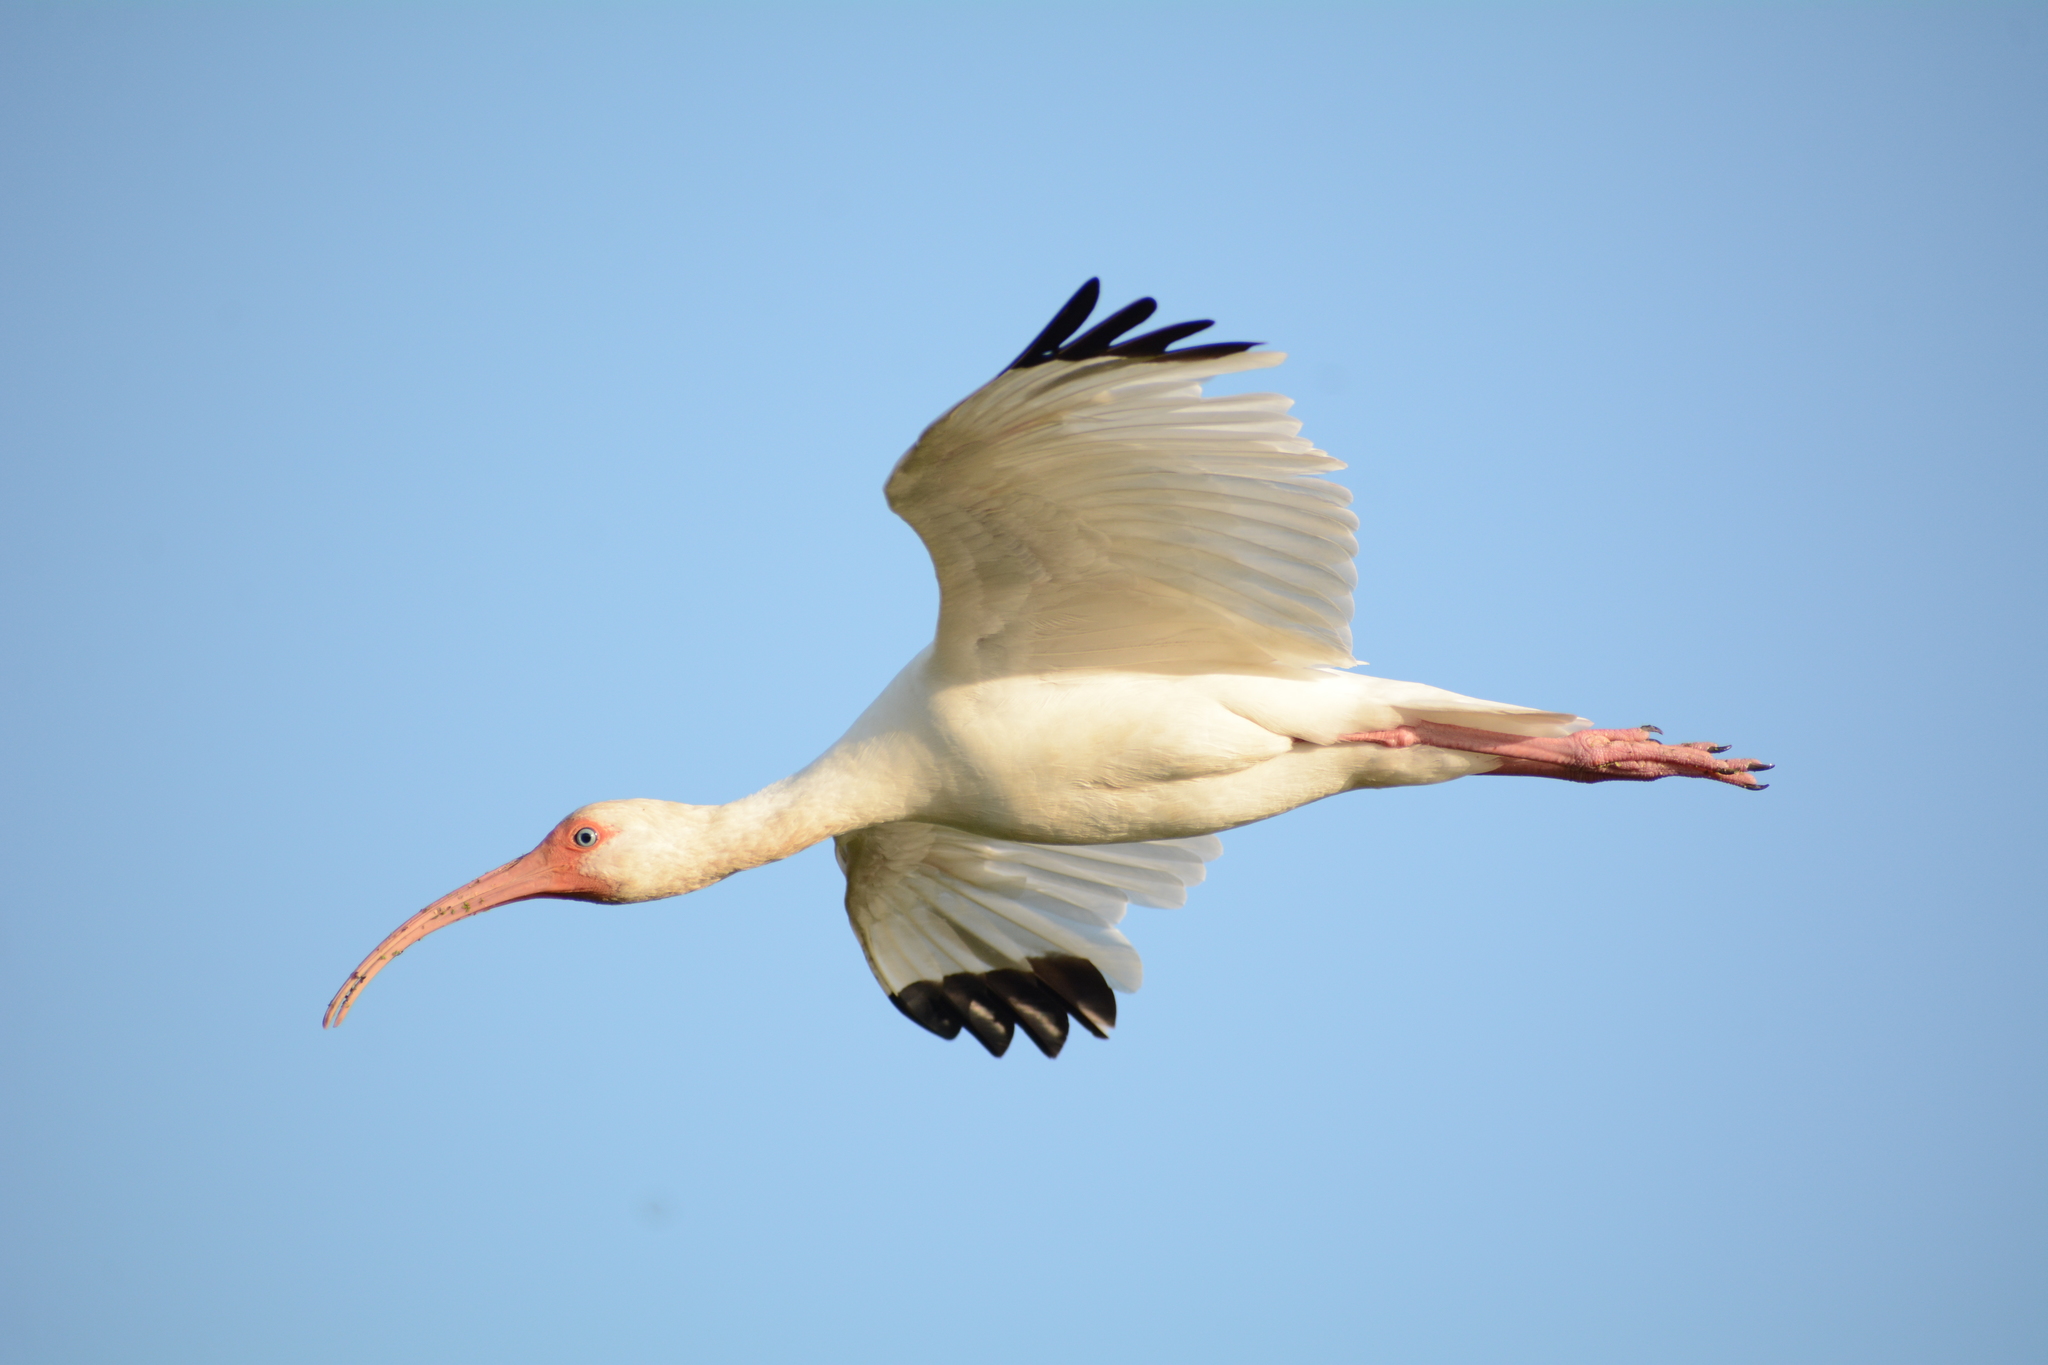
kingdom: Animalia
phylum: Chordata
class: Aves
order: Pelecaniformes
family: Threskiornithidae
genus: Eudocimus
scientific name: Eudocimus albus
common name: White ibis
